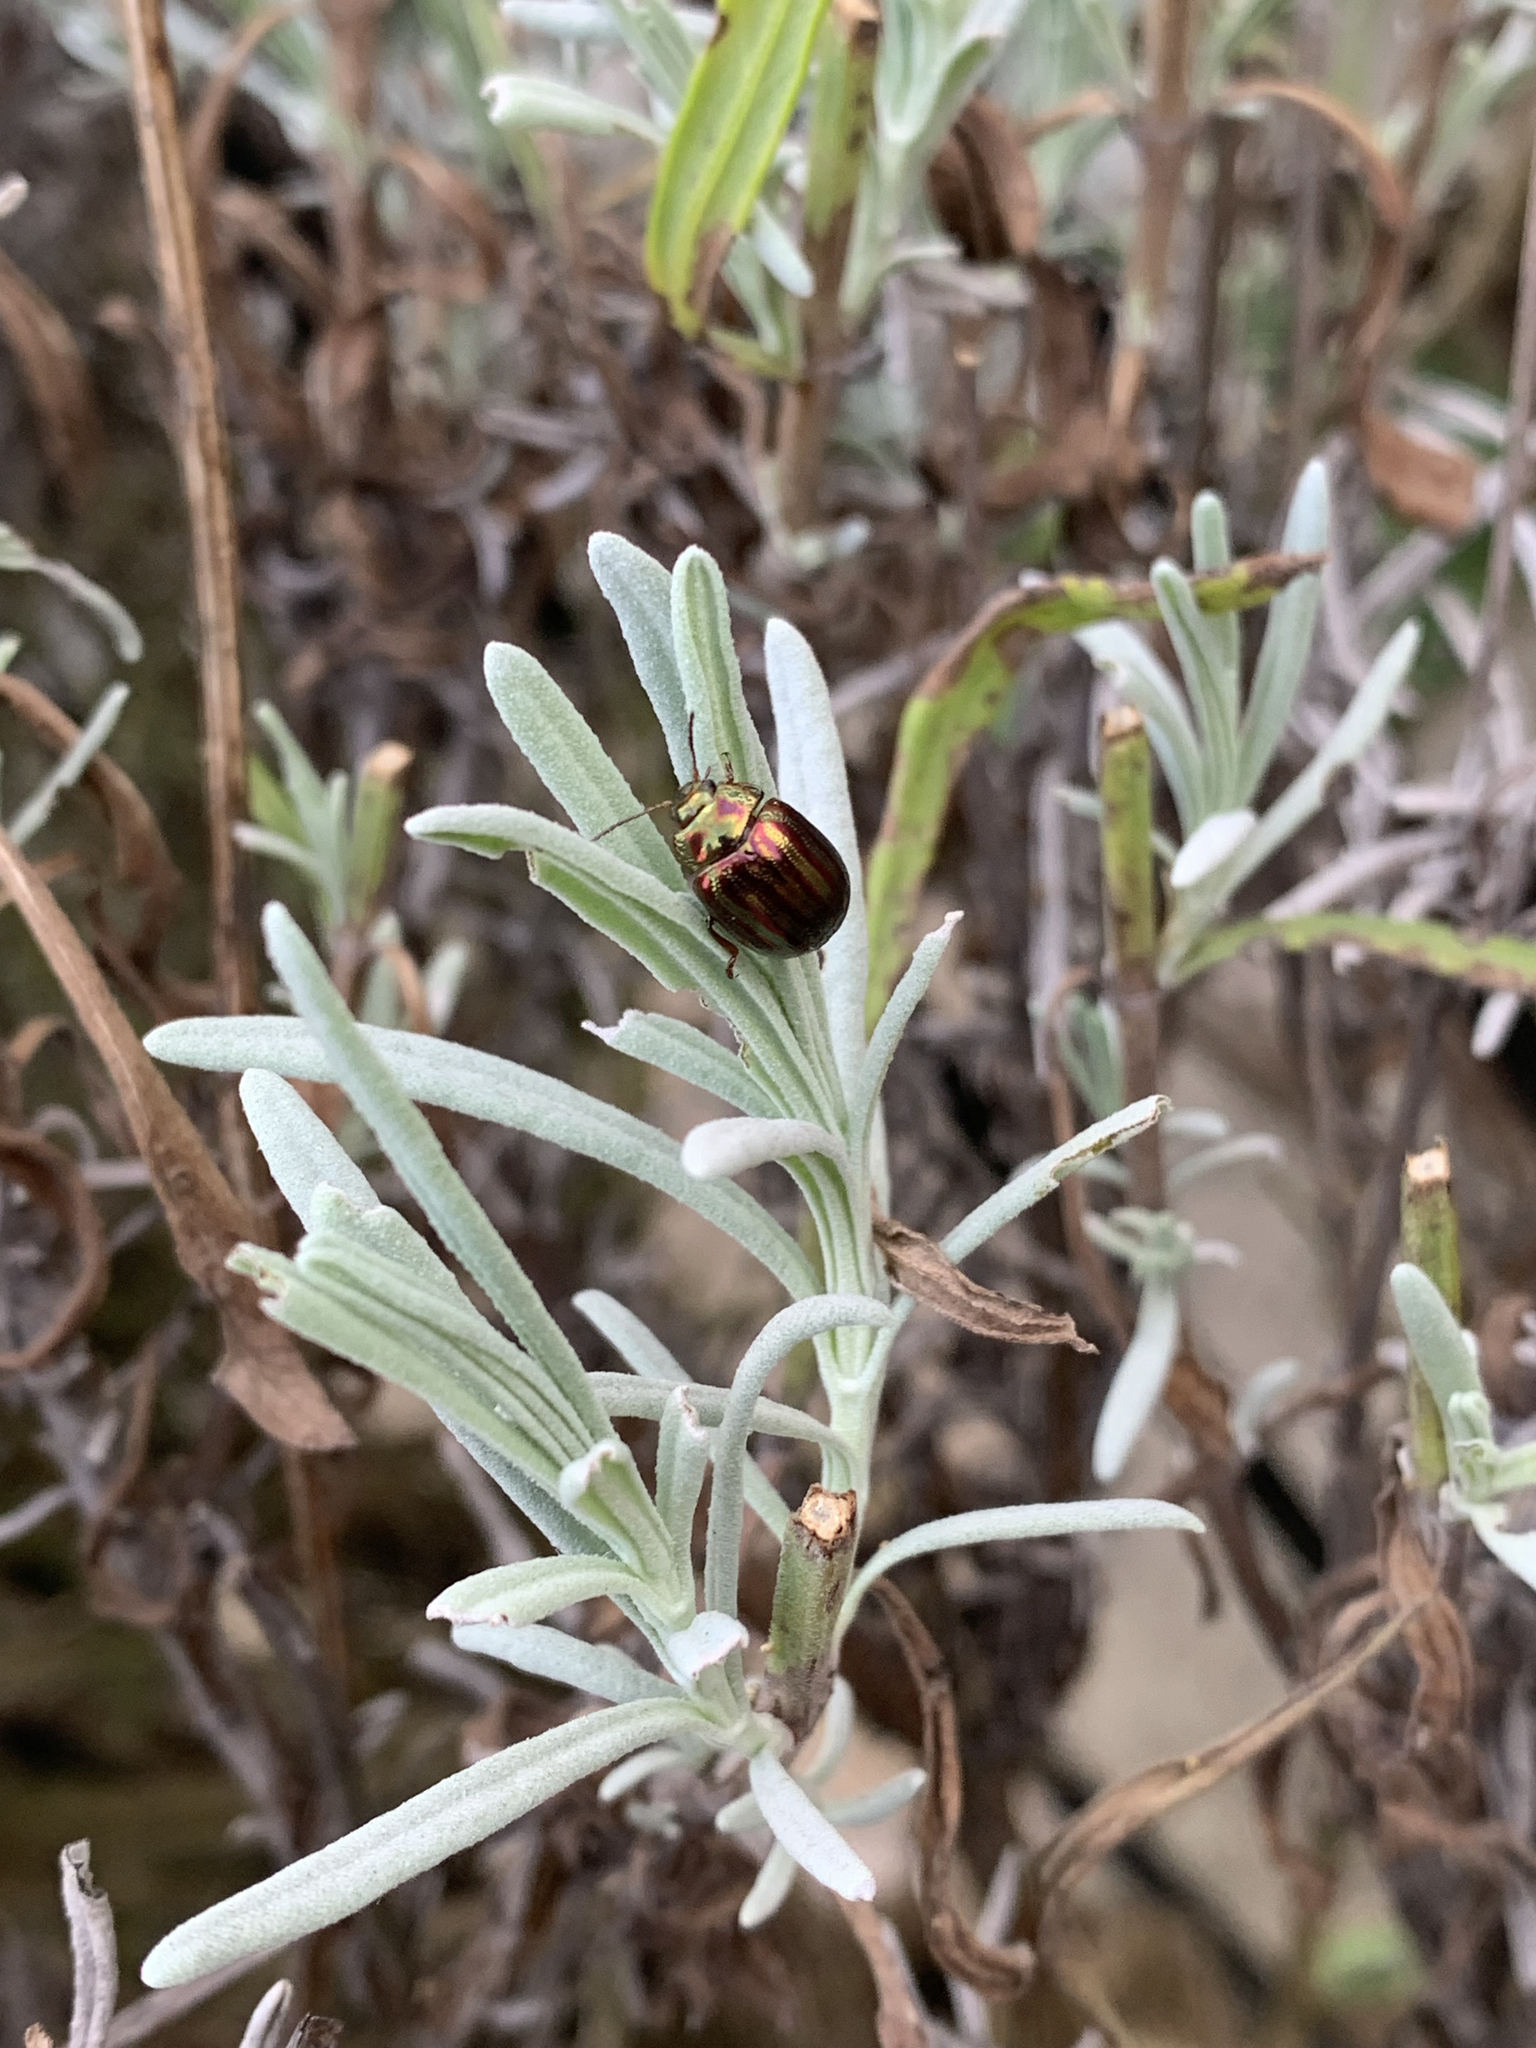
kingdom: Animalia
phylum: Arthropoda
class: Insecta
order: Coleoptera
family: Chrysomelidae
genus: Chrysolina
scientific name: Chrysolina americana
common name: Rosemary beetle
